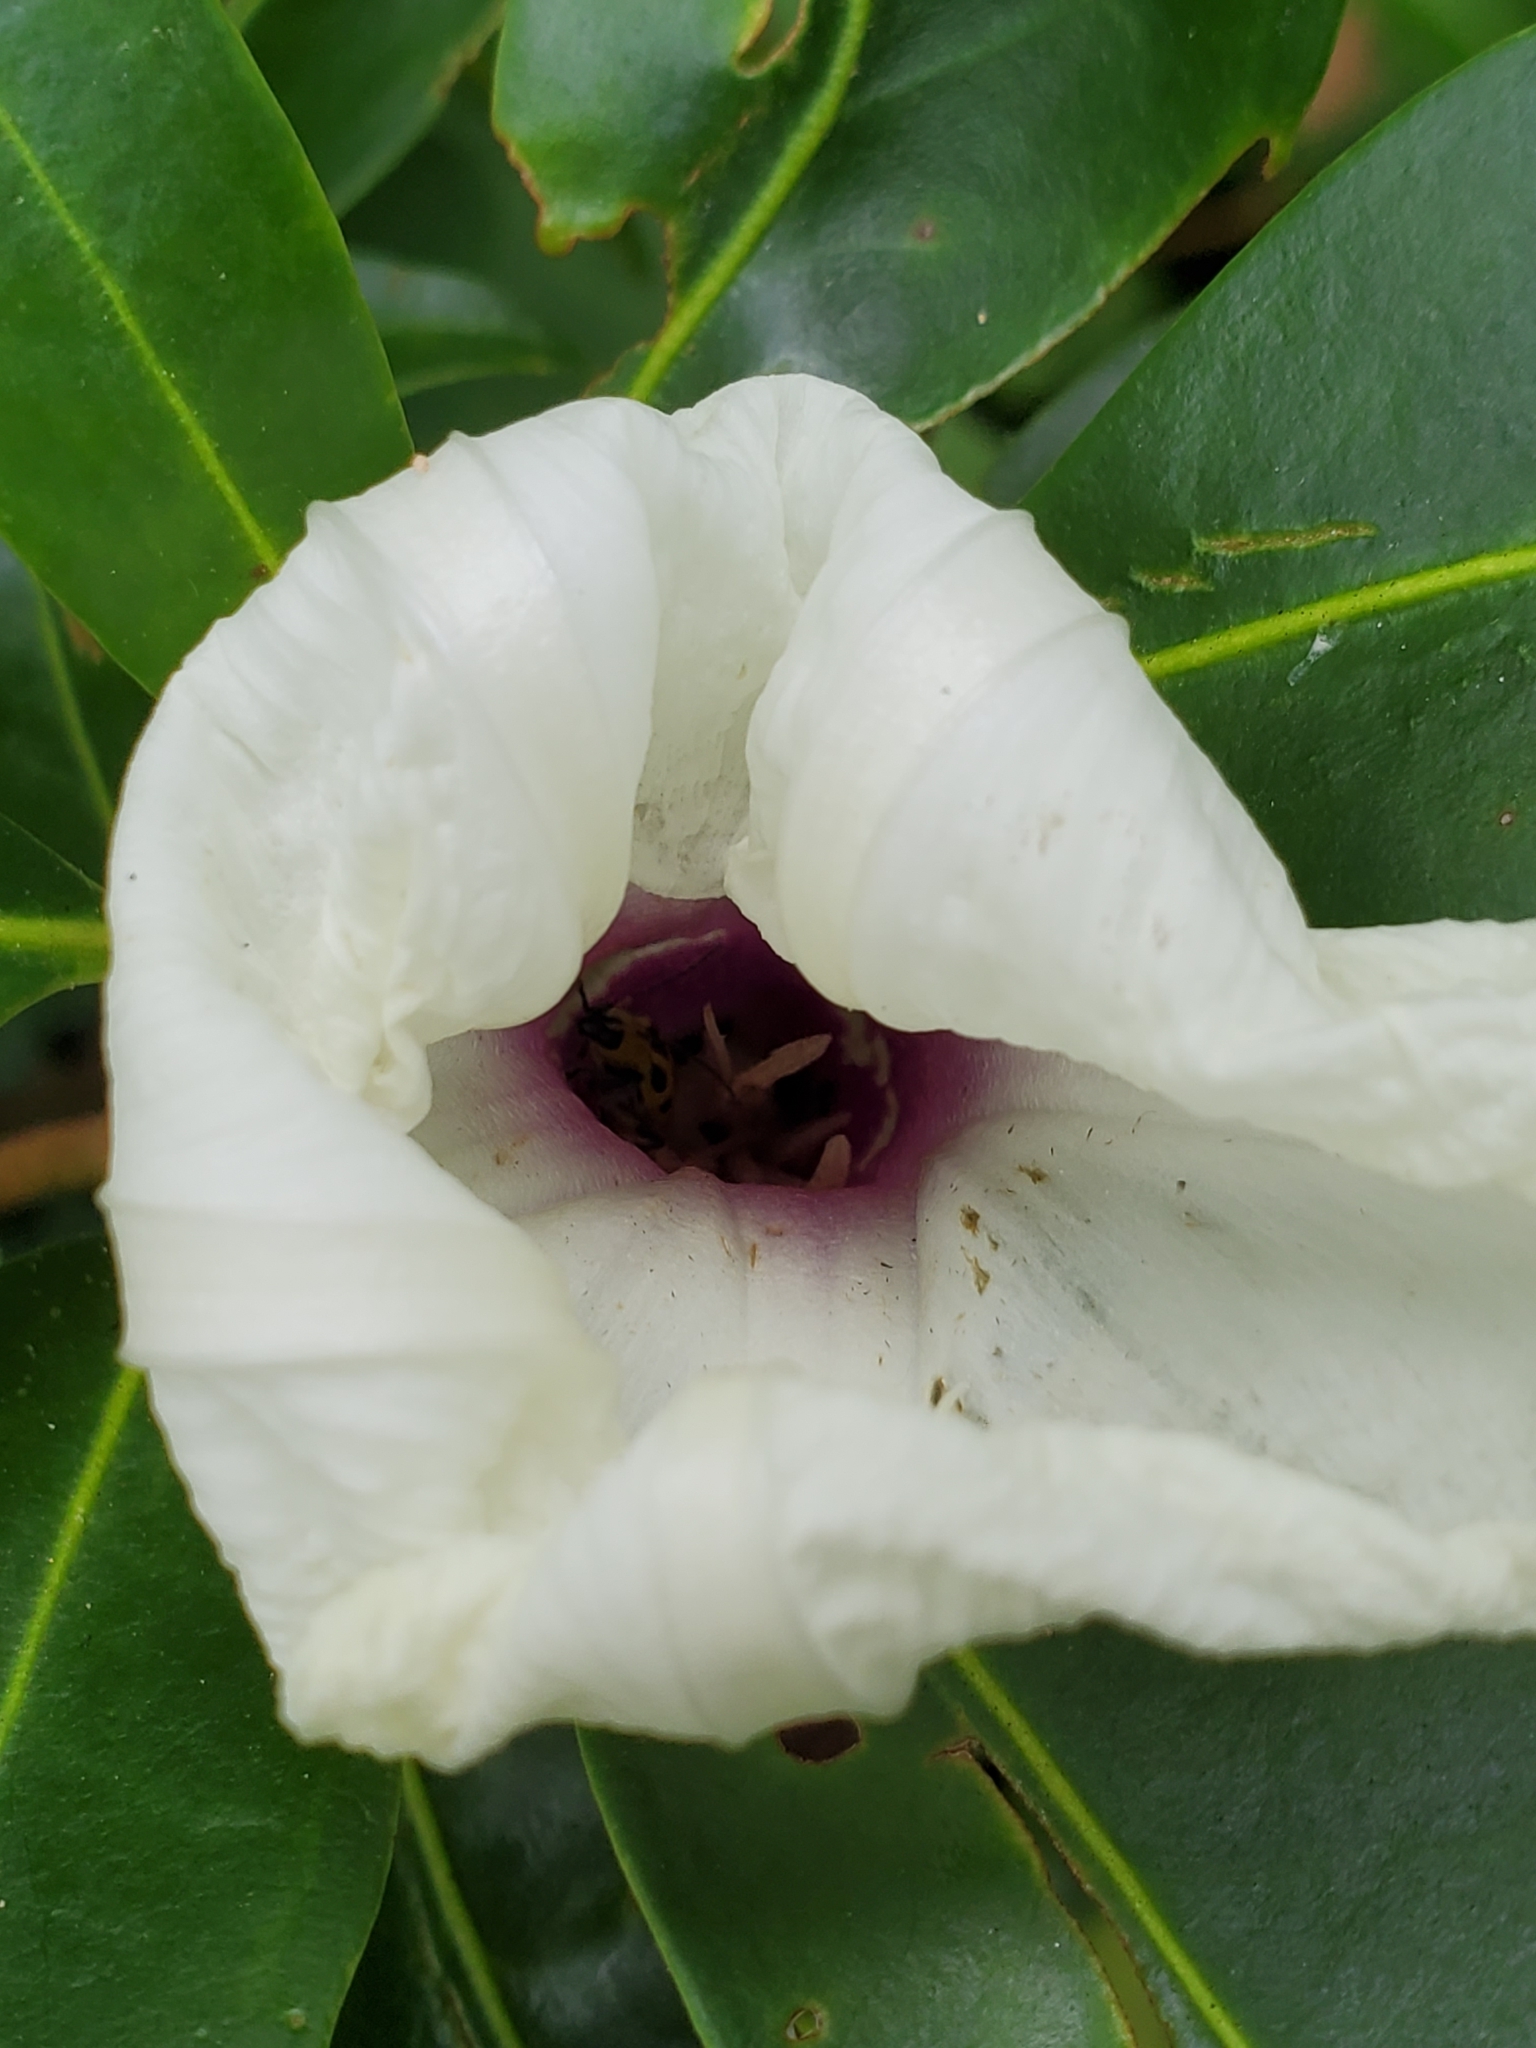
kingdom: Plantae
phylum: Tracheophyta
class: Magnoliopsida
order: Solanales
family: Convolvulaceae
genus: Ipomoea
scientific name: Ipomoea pandurata
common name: Man-of-the-earth
